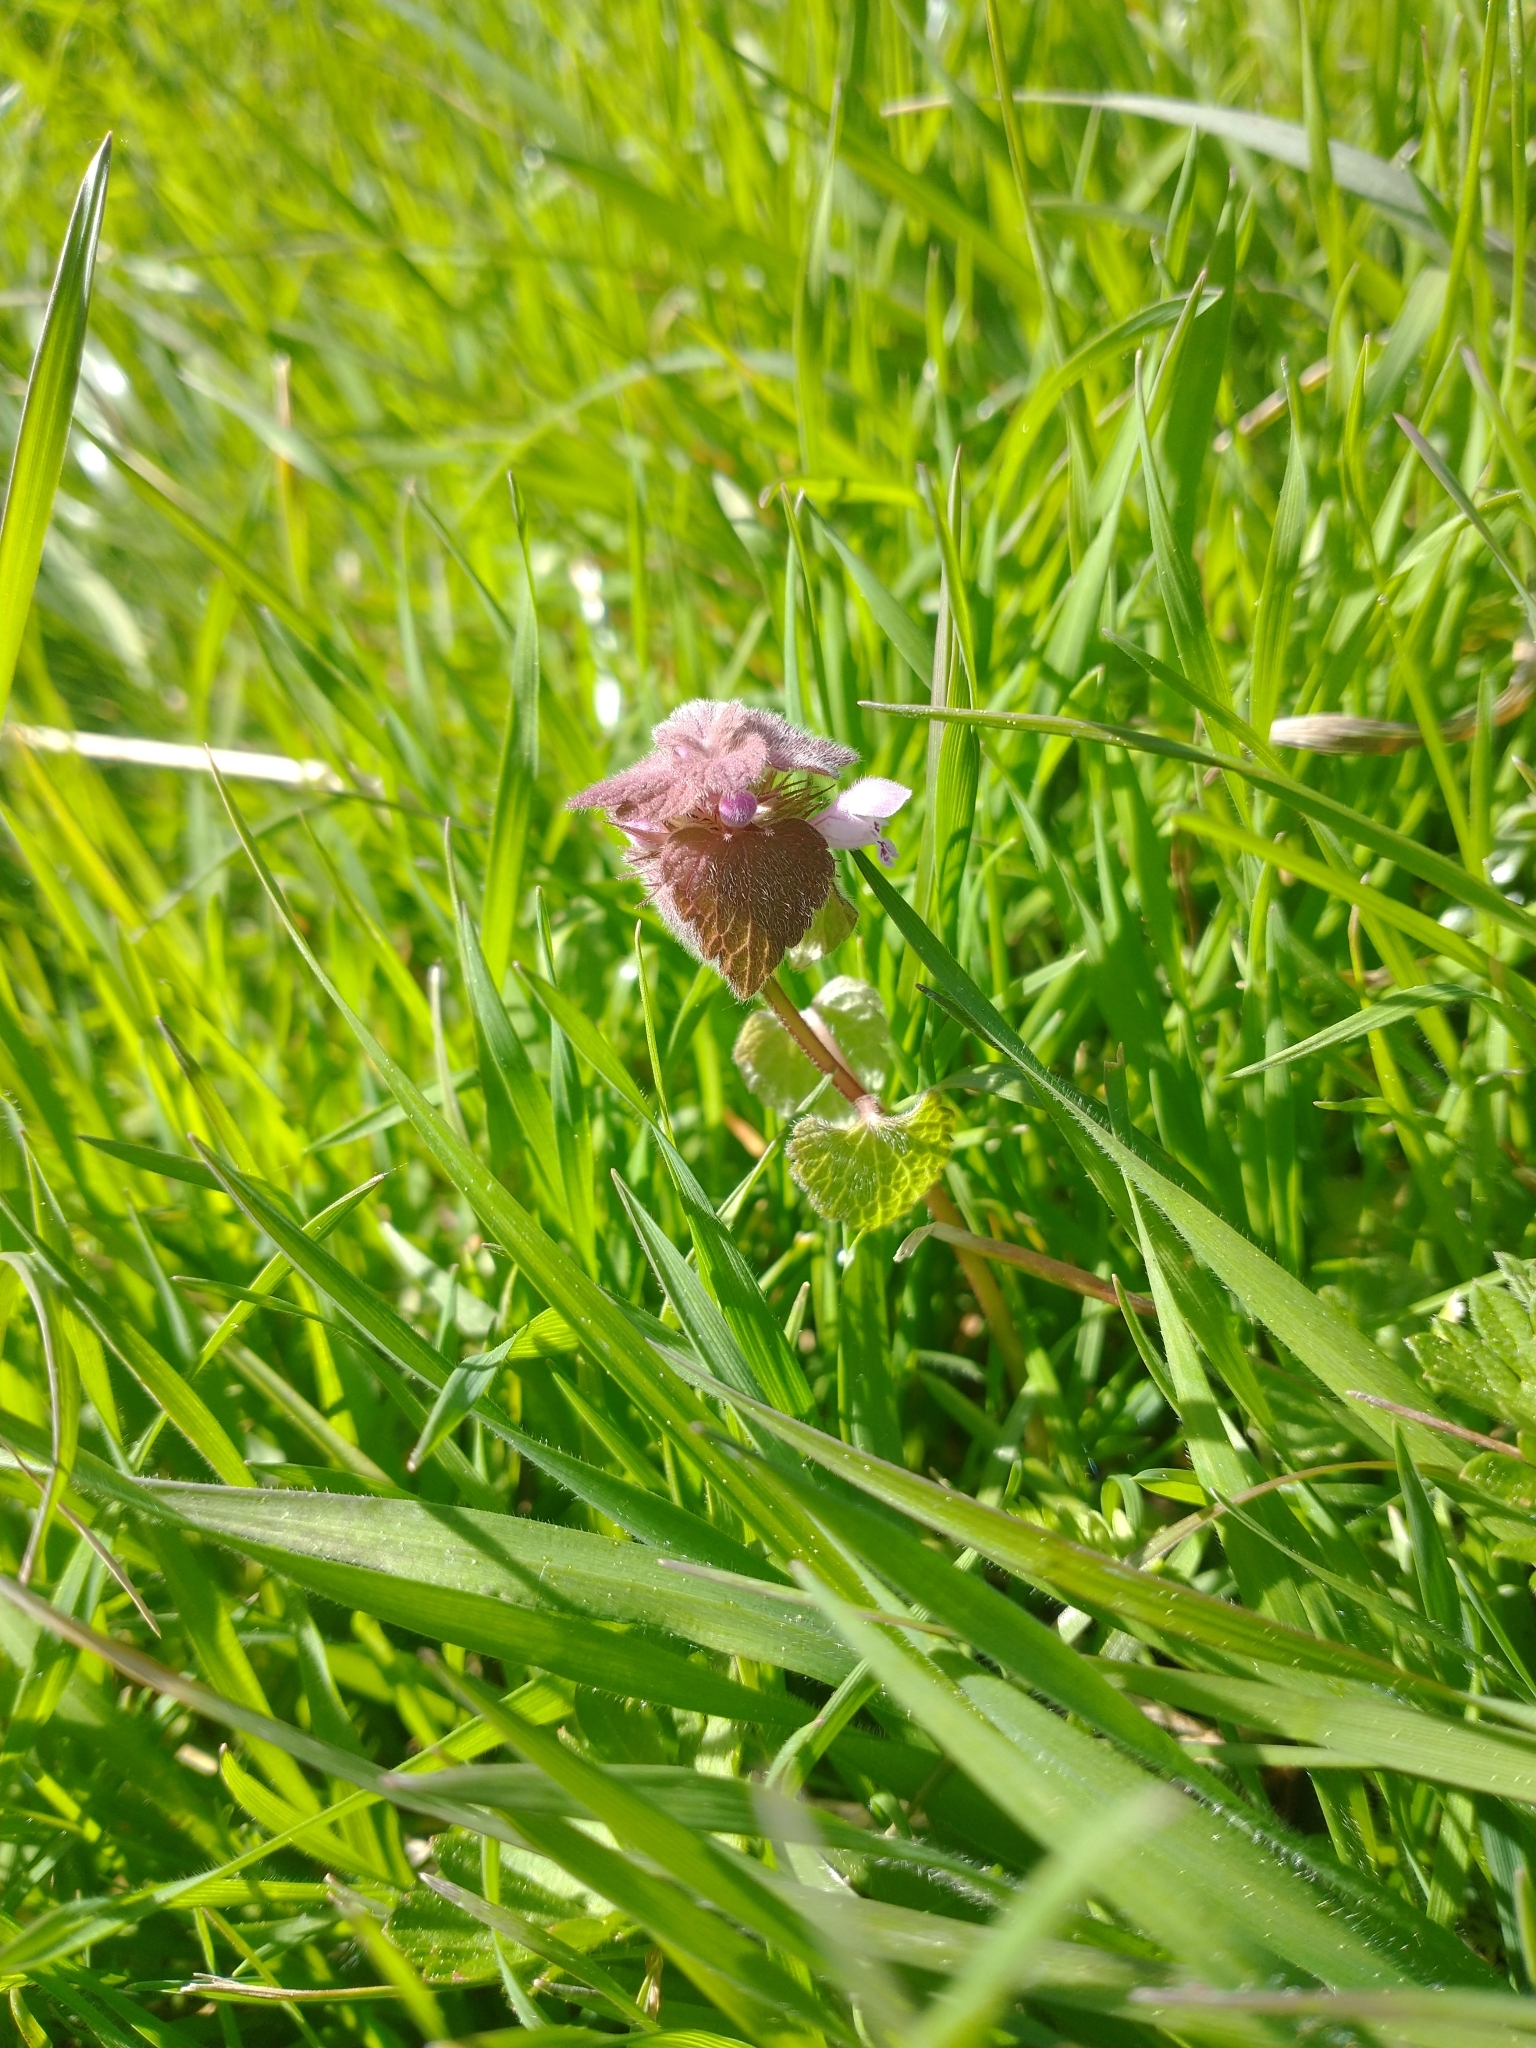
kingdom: Plantae
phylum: Tracheophyta
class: Magnoliopsida
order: Lamiales
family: Lamiaceae
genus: Lamium
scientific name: Lamium purpureum
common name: Red dead-nettle
